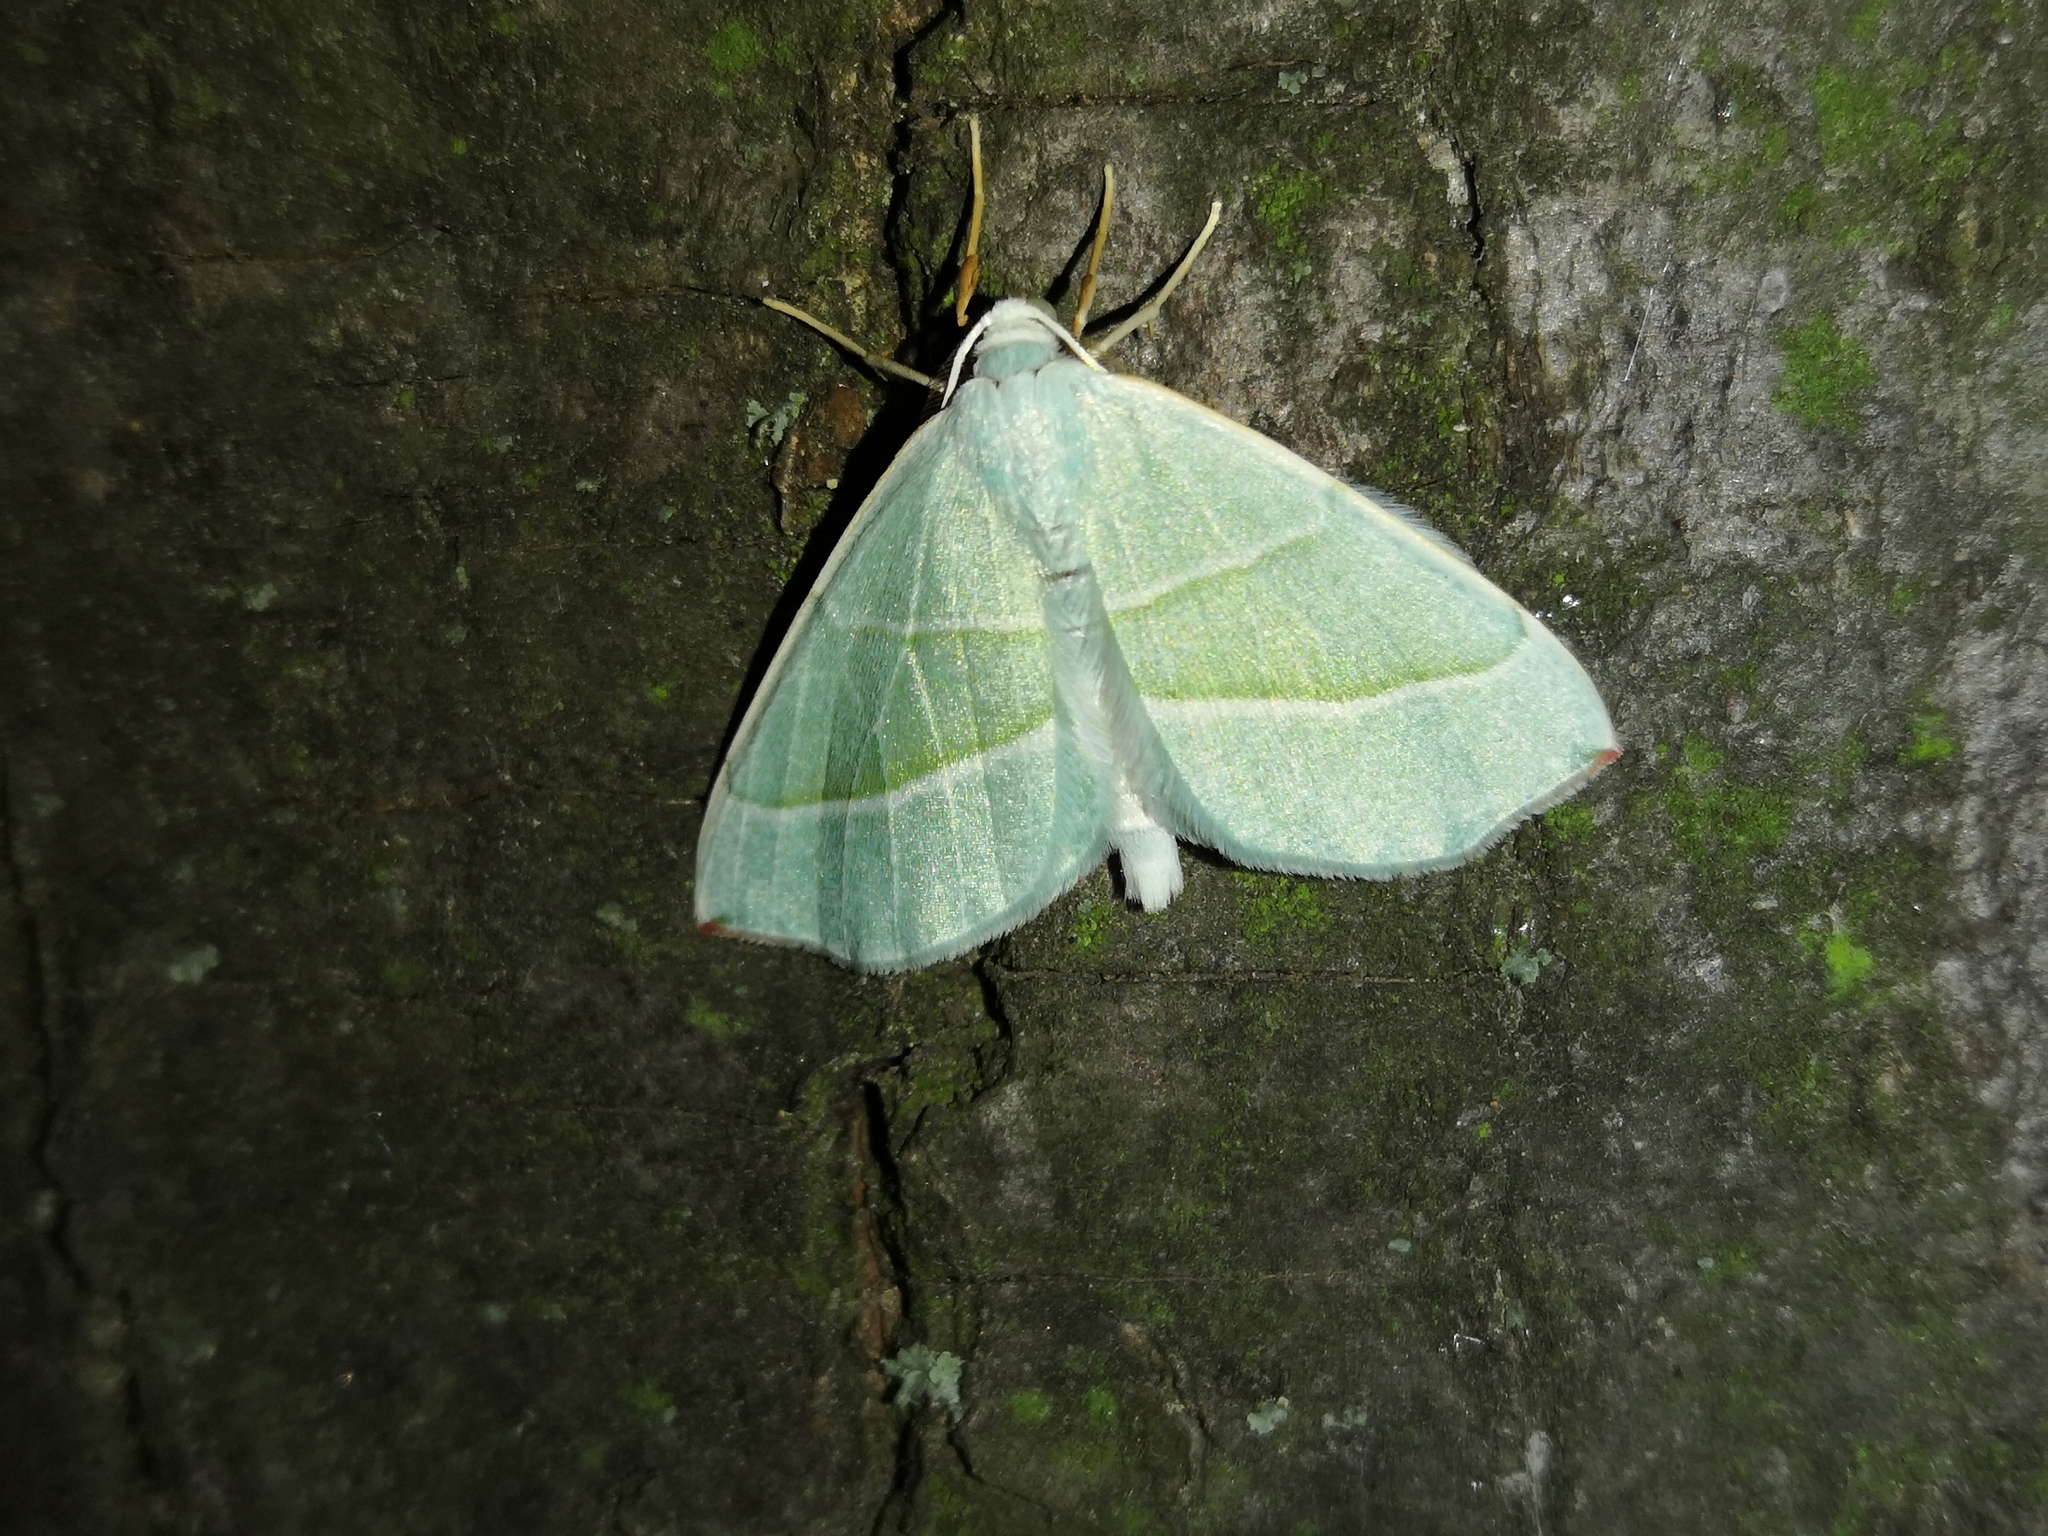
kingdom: Animalia
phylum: Arthropoda
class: Insecta
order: Lepidoptera
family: Geometridae
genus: Campaea
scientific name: Campaea margaritaria
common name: Light emerald
